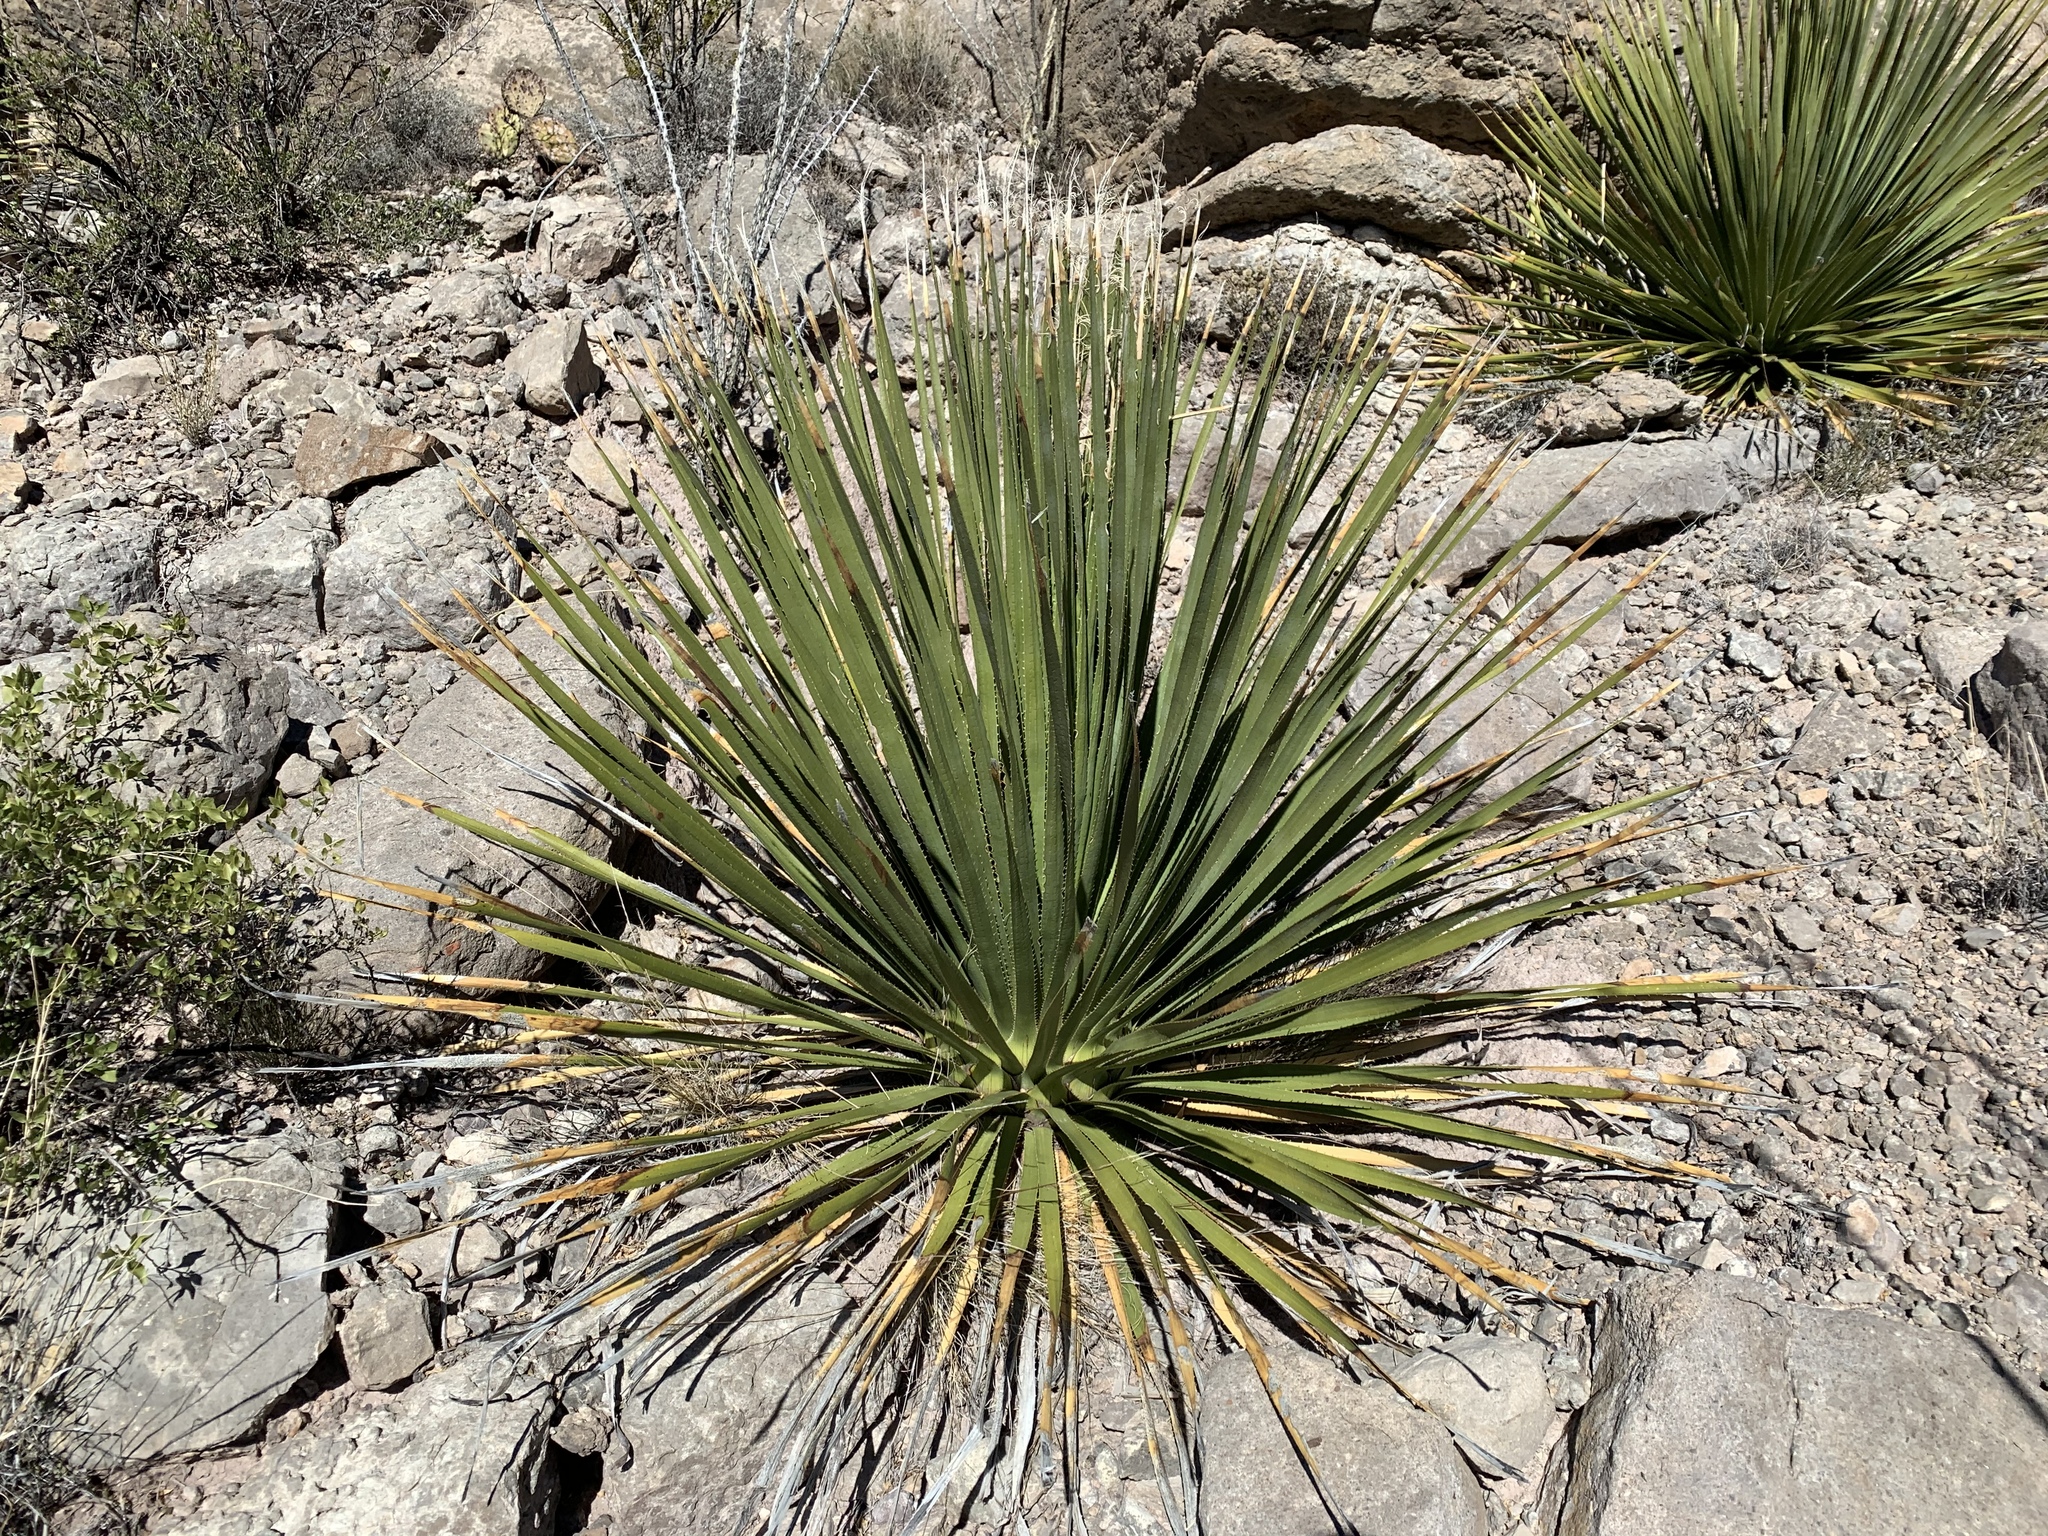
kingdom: Plantae
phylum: Tracheophyta
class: Liliopsida
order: Asparagales
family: Asparagaceae
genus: Dasylirion
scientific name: Dasylirion wheeleri
